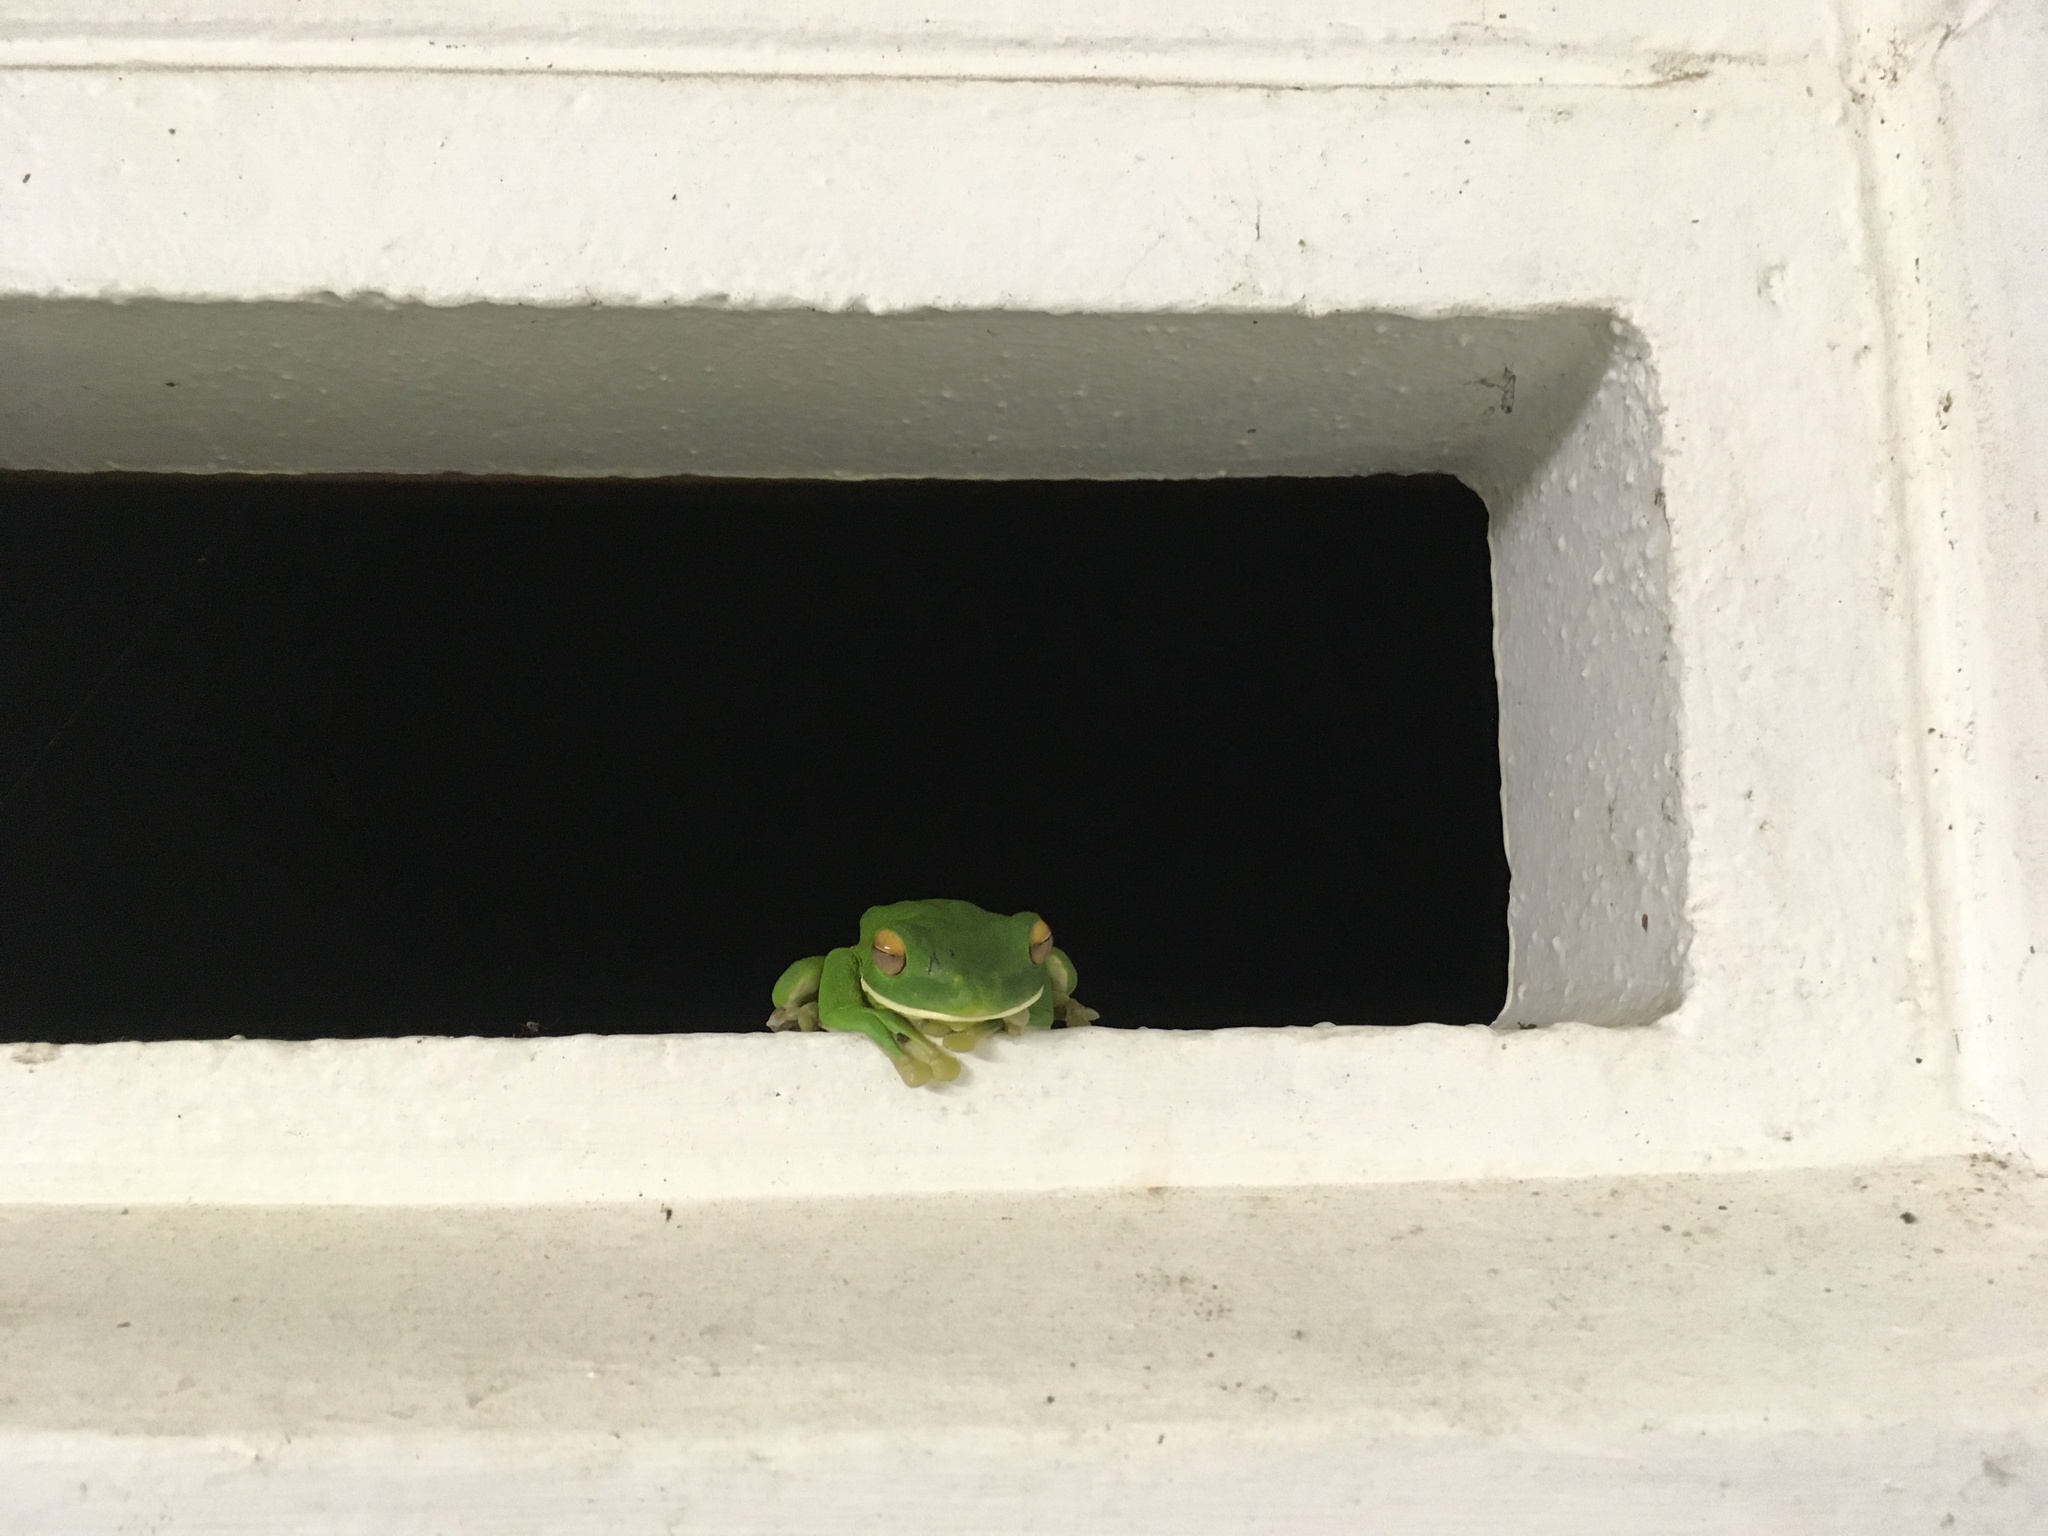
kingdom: Animalia
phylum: Chordata
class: Amphibia
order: Anura
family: Pelodryadidae
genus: Nyctimystes
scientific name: Nyctimystes infrafrenatus
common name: Australian giant treefrog
